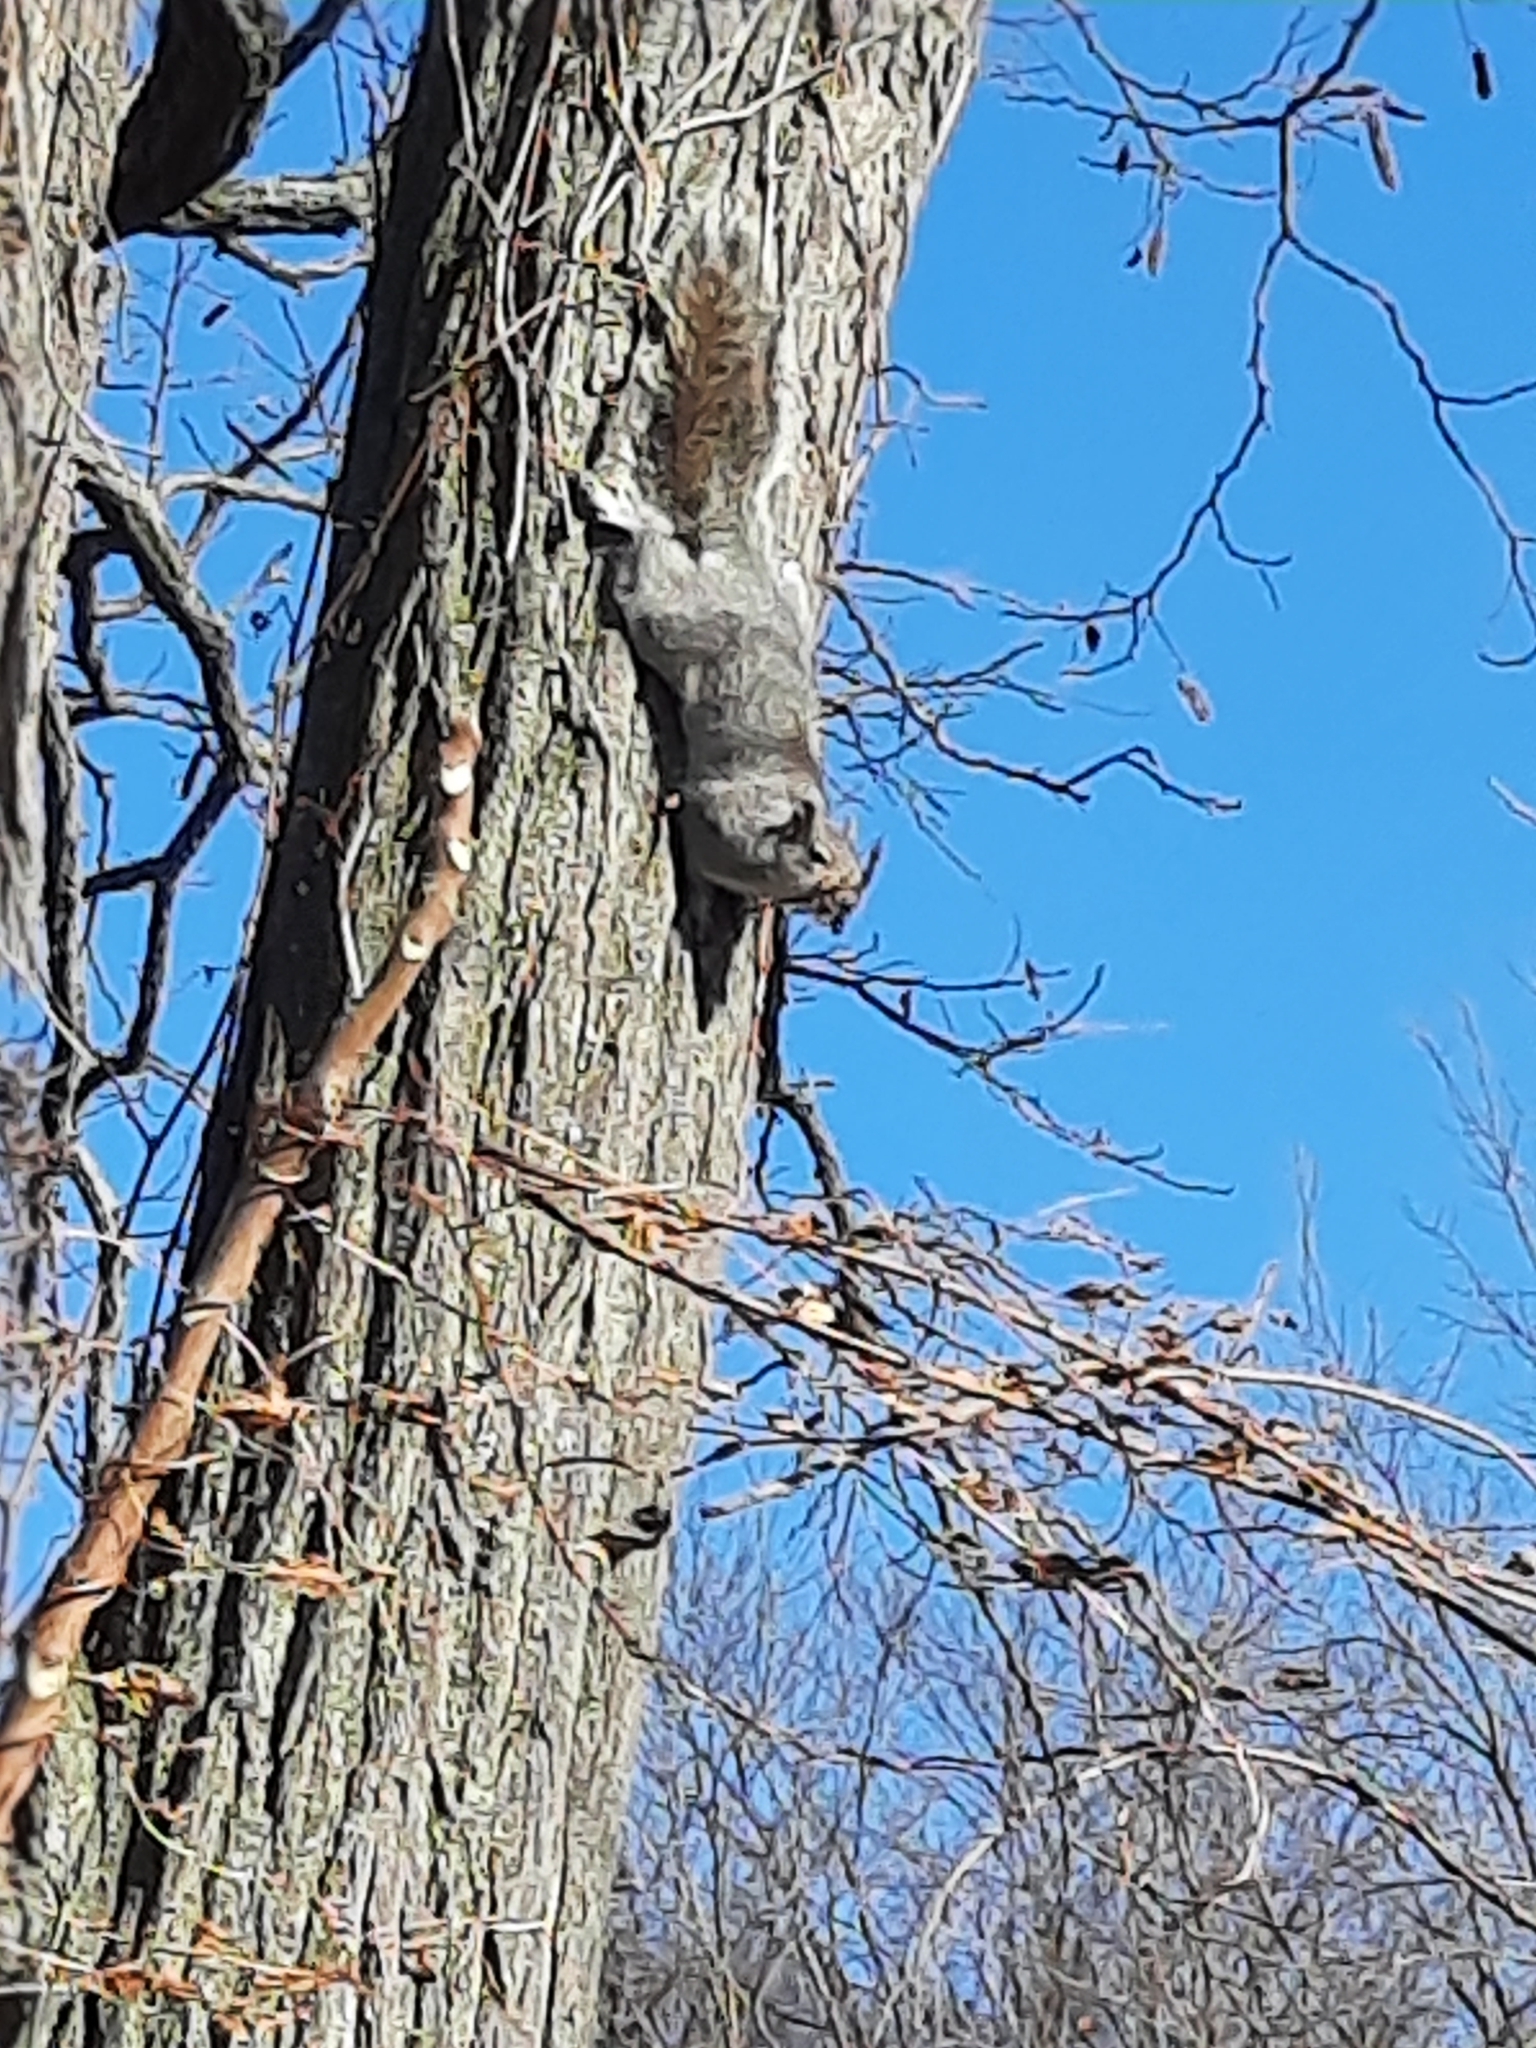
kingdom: Animalia
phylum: Chordata
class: Mammalia
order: Rodentia
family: Sciuridae
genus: Sciurus
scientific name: Sciurus carolinensis
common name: Eastern gray squirrel
